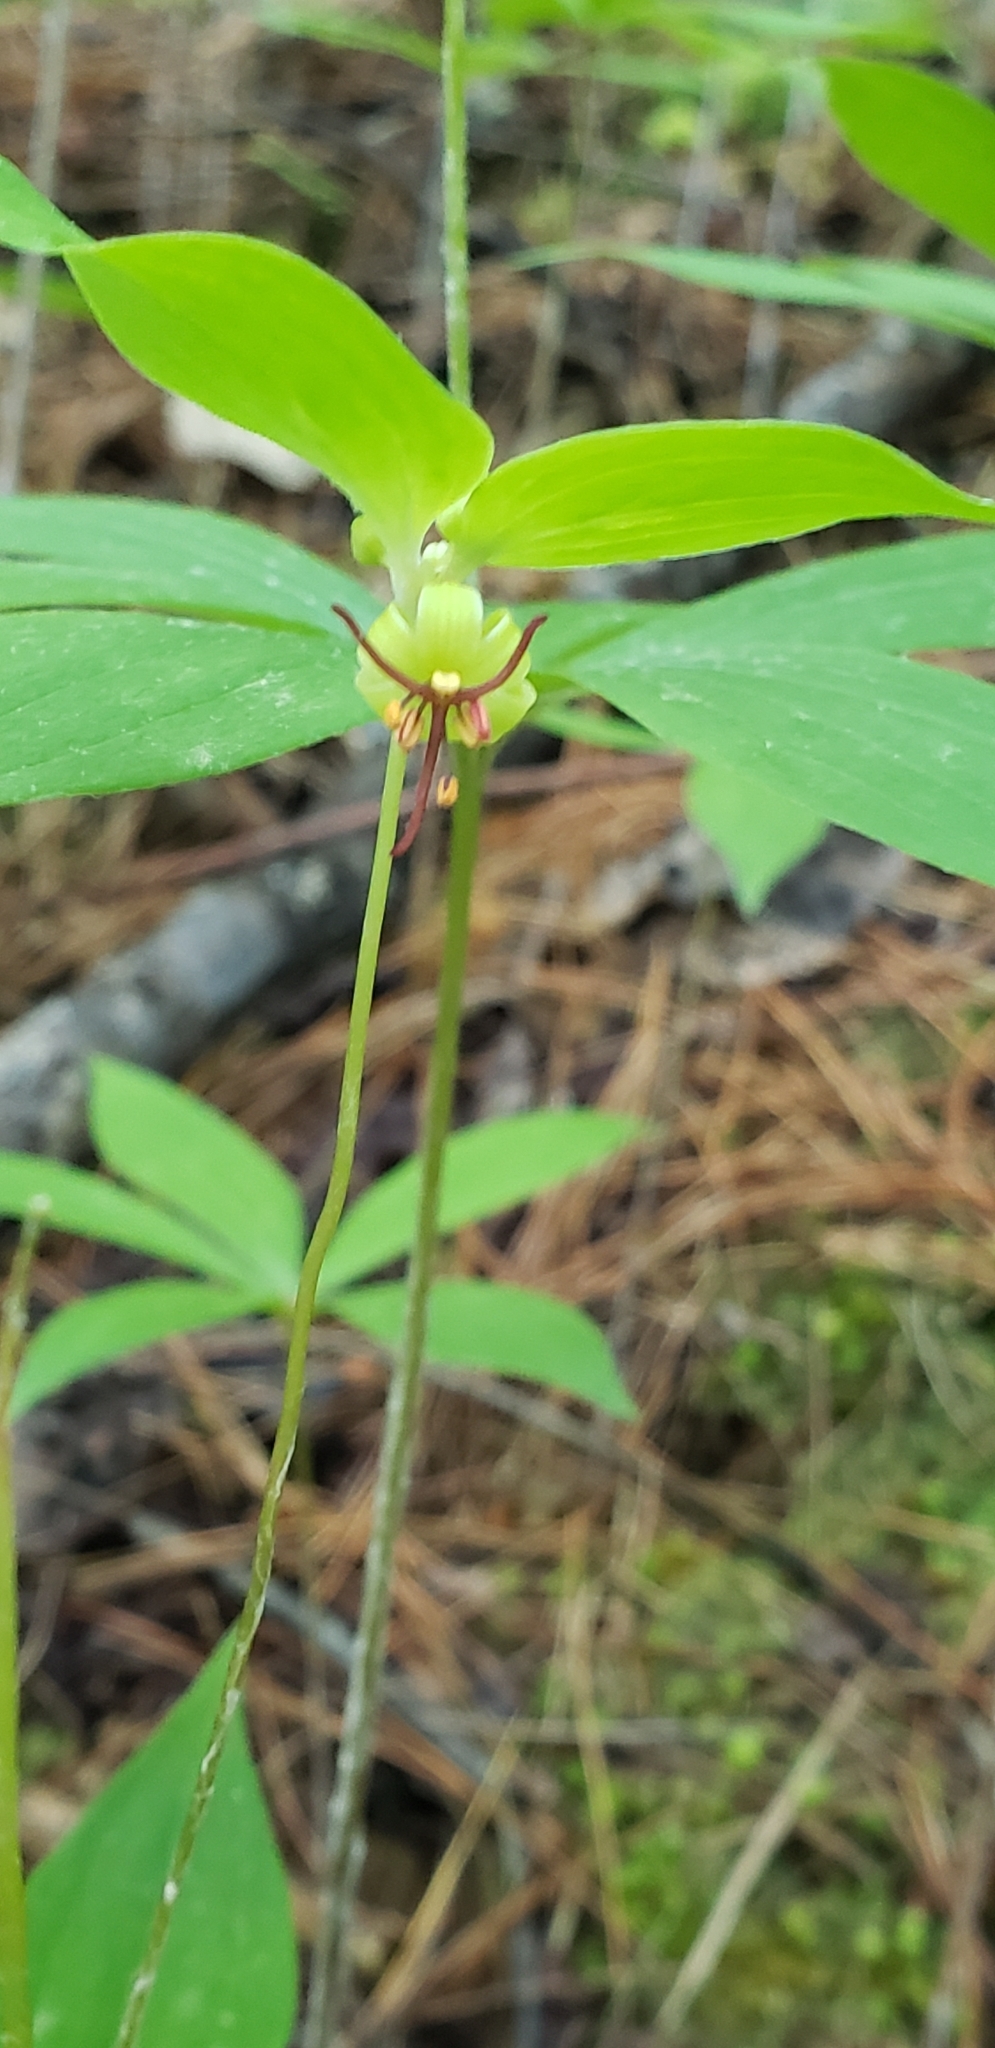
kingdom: Plantae
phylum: Tracheophyta
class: Liliopsida
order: Liliales
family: Liliaceae
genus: Medeola
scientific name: Medeola virginiana
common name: Indian cucumber-root
